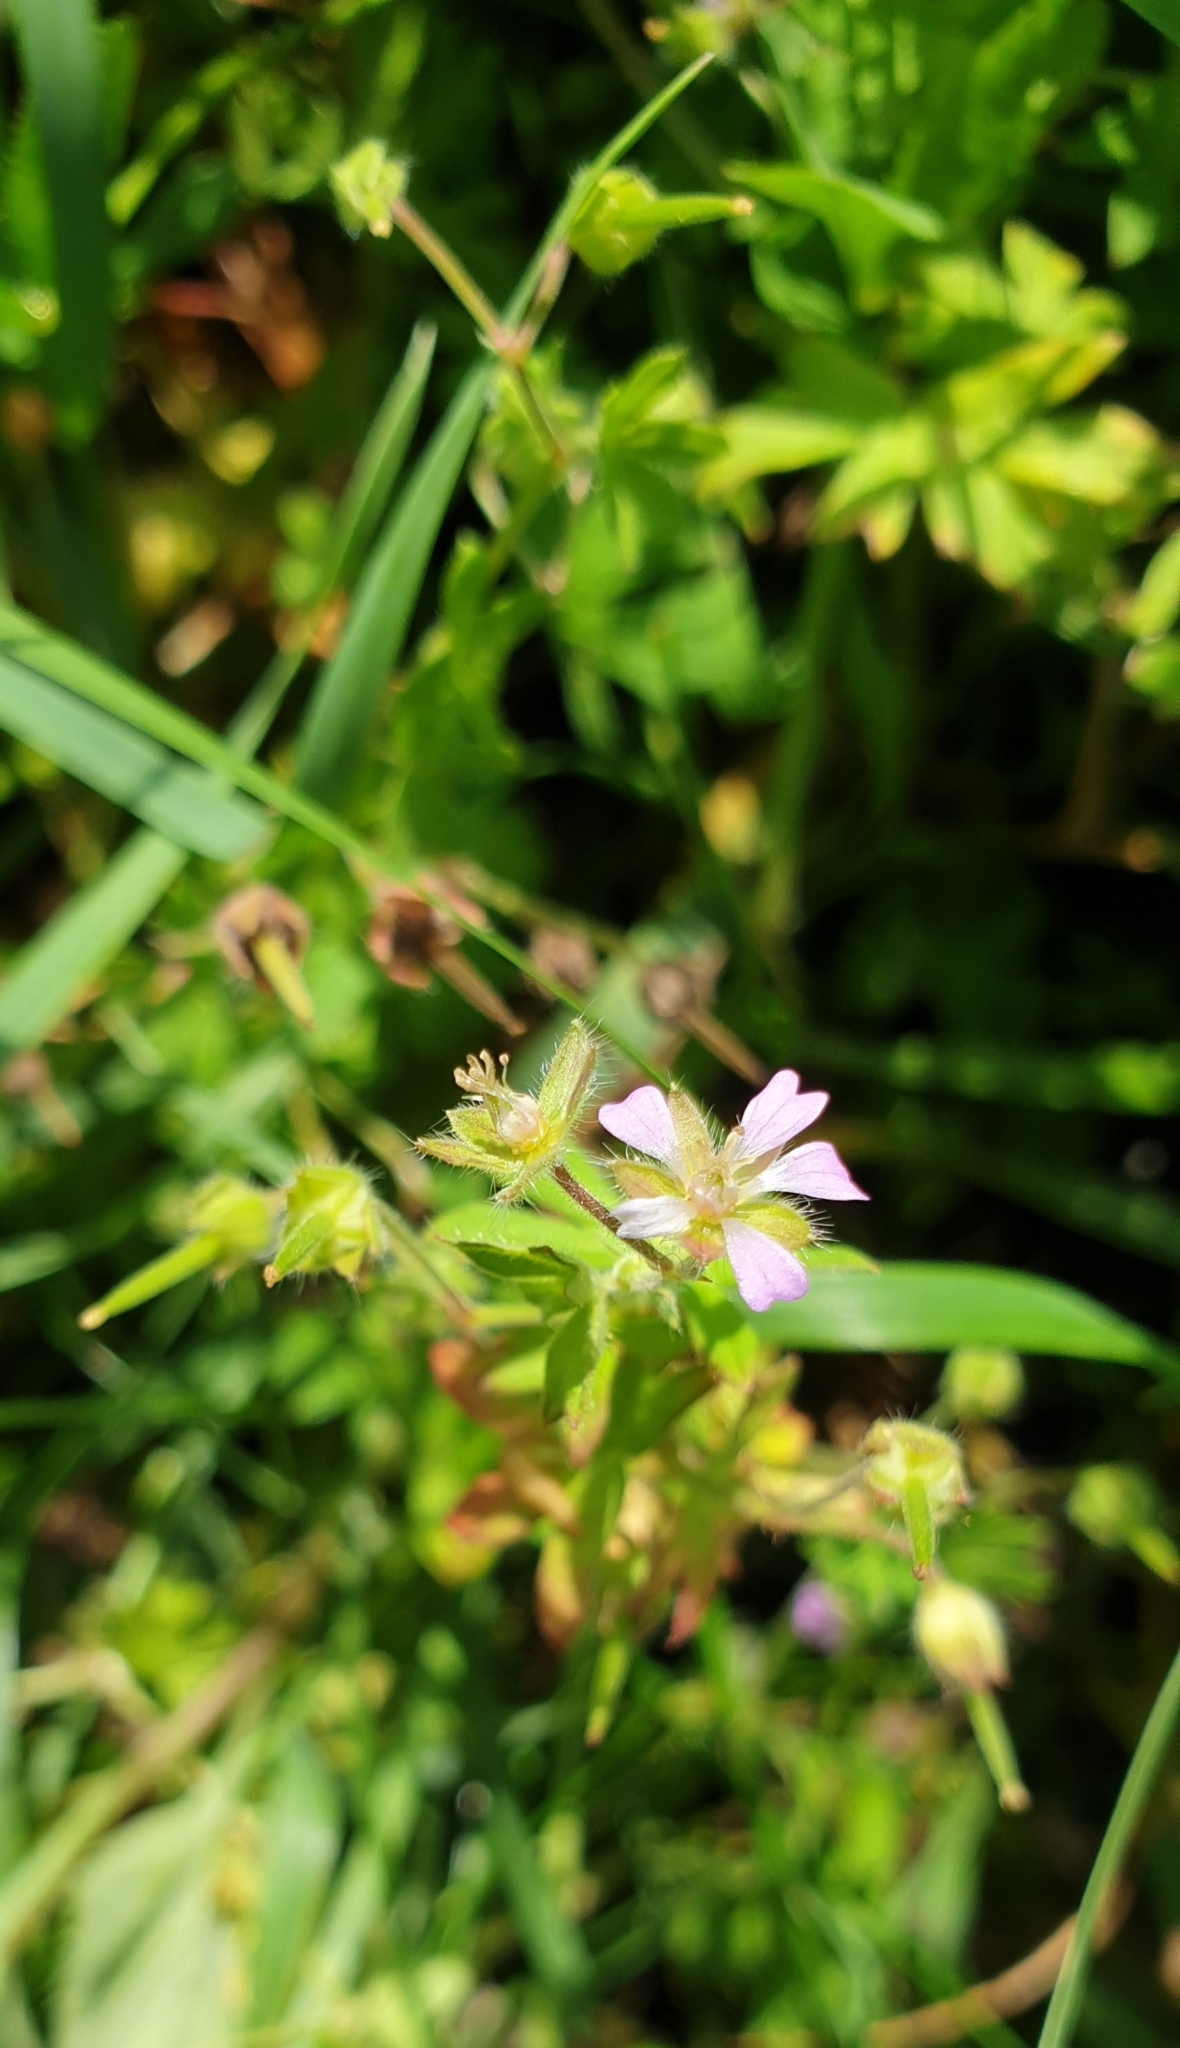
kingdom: Plantae
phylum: Tracheophyta
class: Magnoliopsida
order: Geraniales
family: Geraniaceae
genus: Geranium
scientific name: Geranium pusillum
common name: Small geranium
